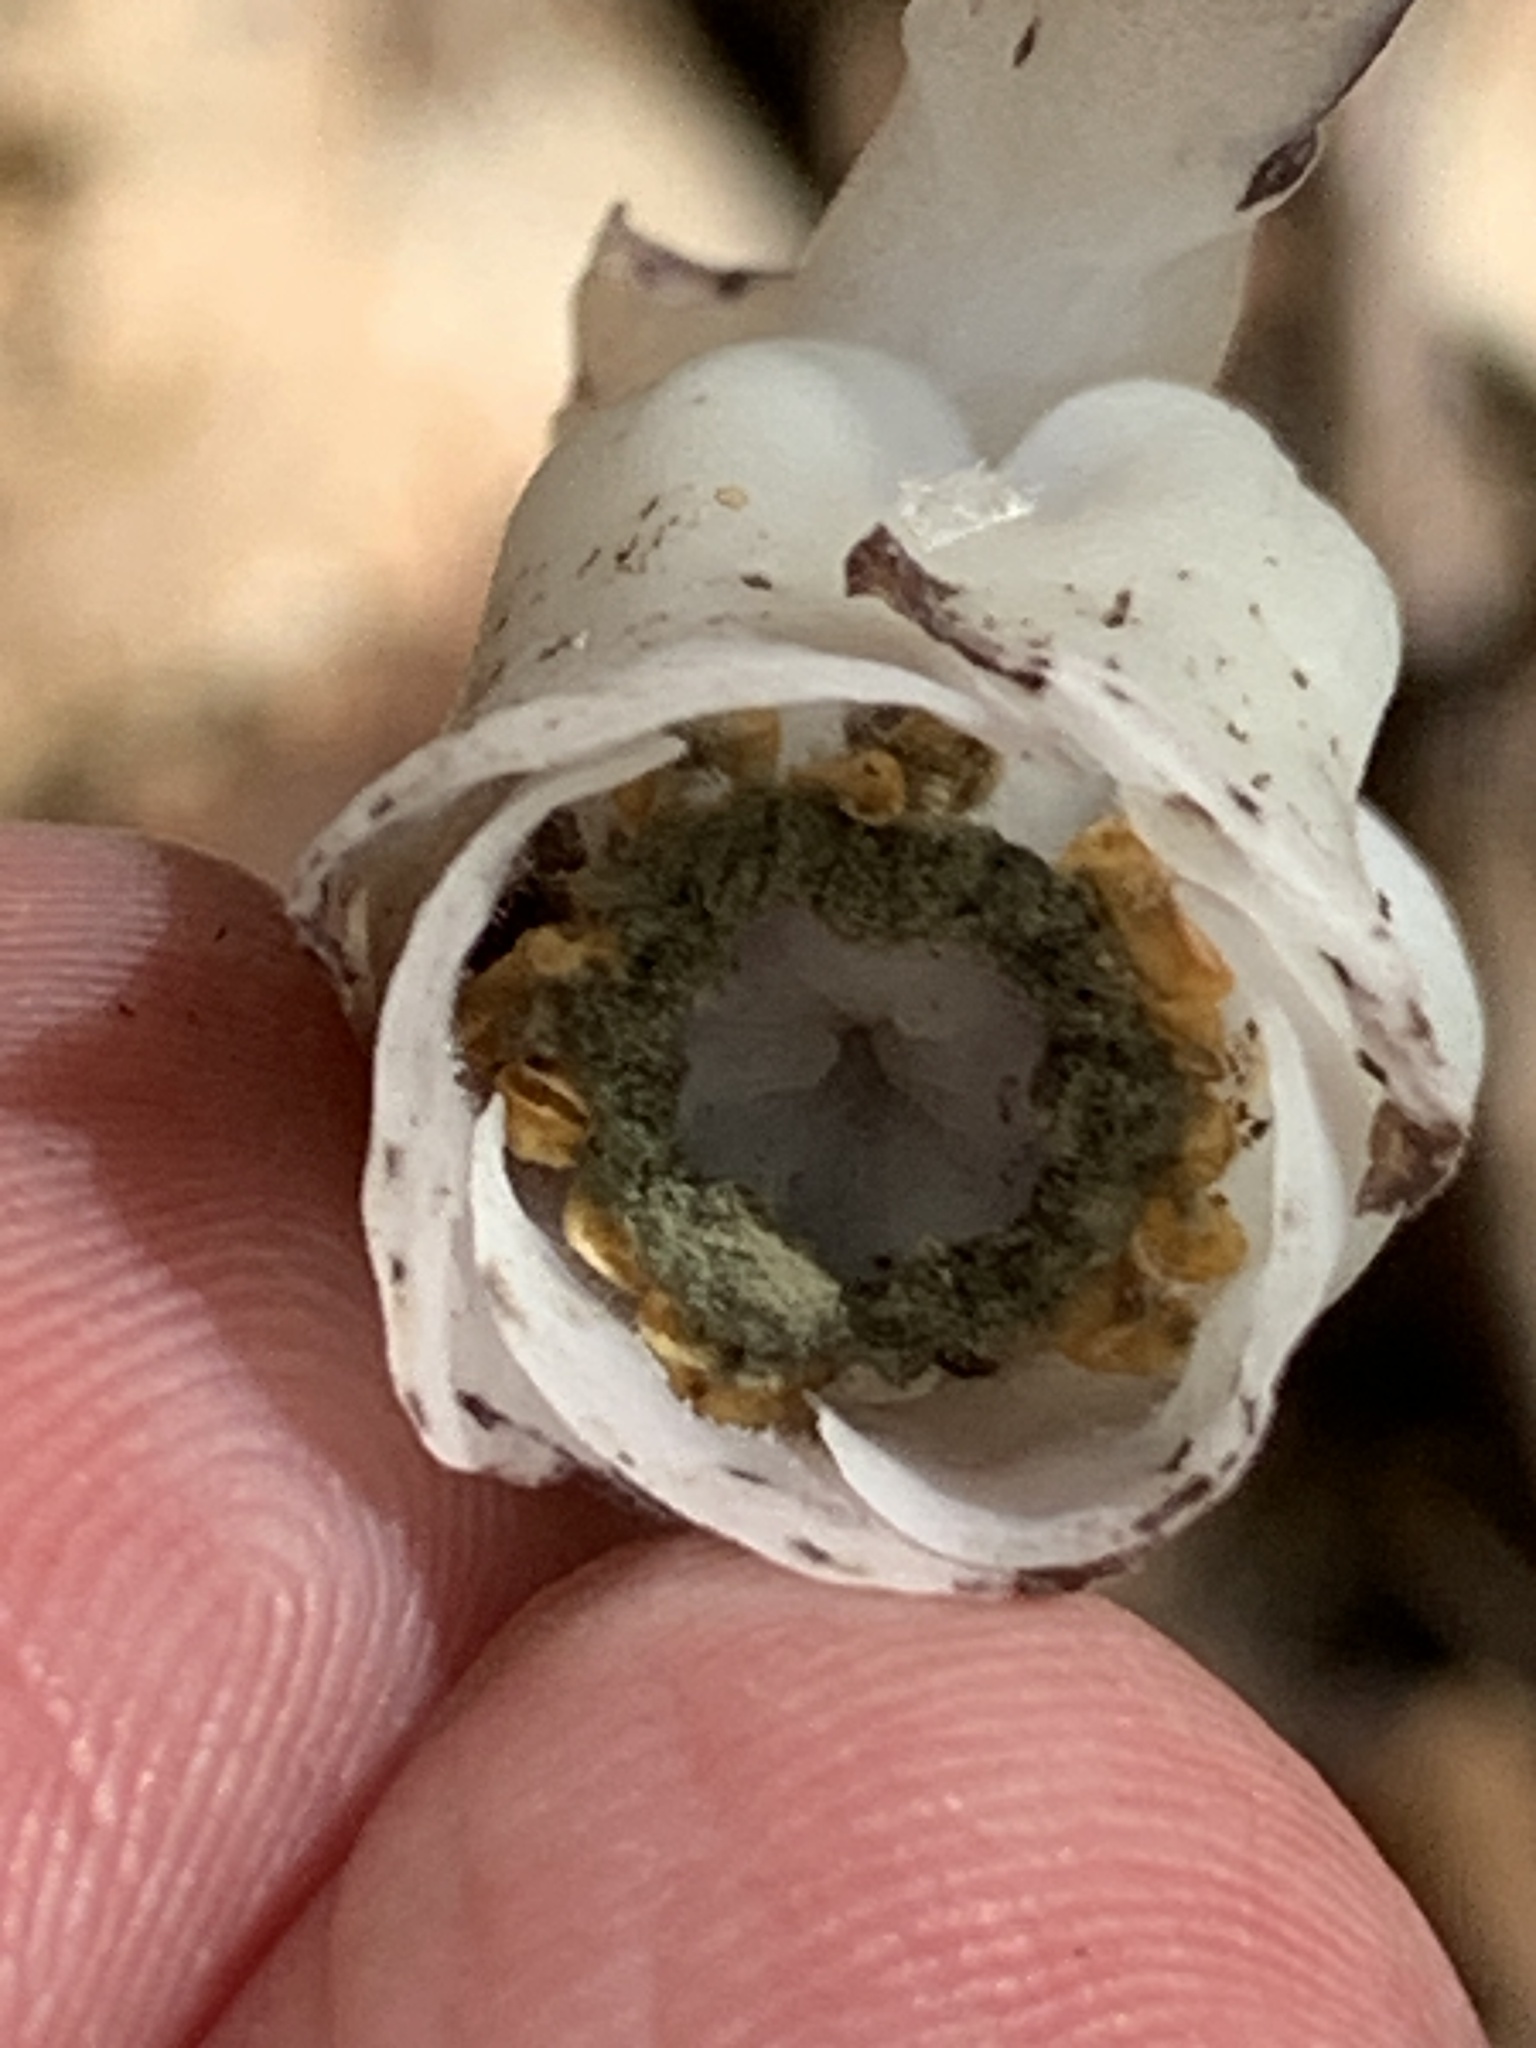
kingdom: Plantae
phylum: Tracheophyta
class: Magnoliopsida
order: Ericales
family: Ericaceae
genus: Monotropa
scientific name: Monotropa uniflora
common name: Convulsion root
